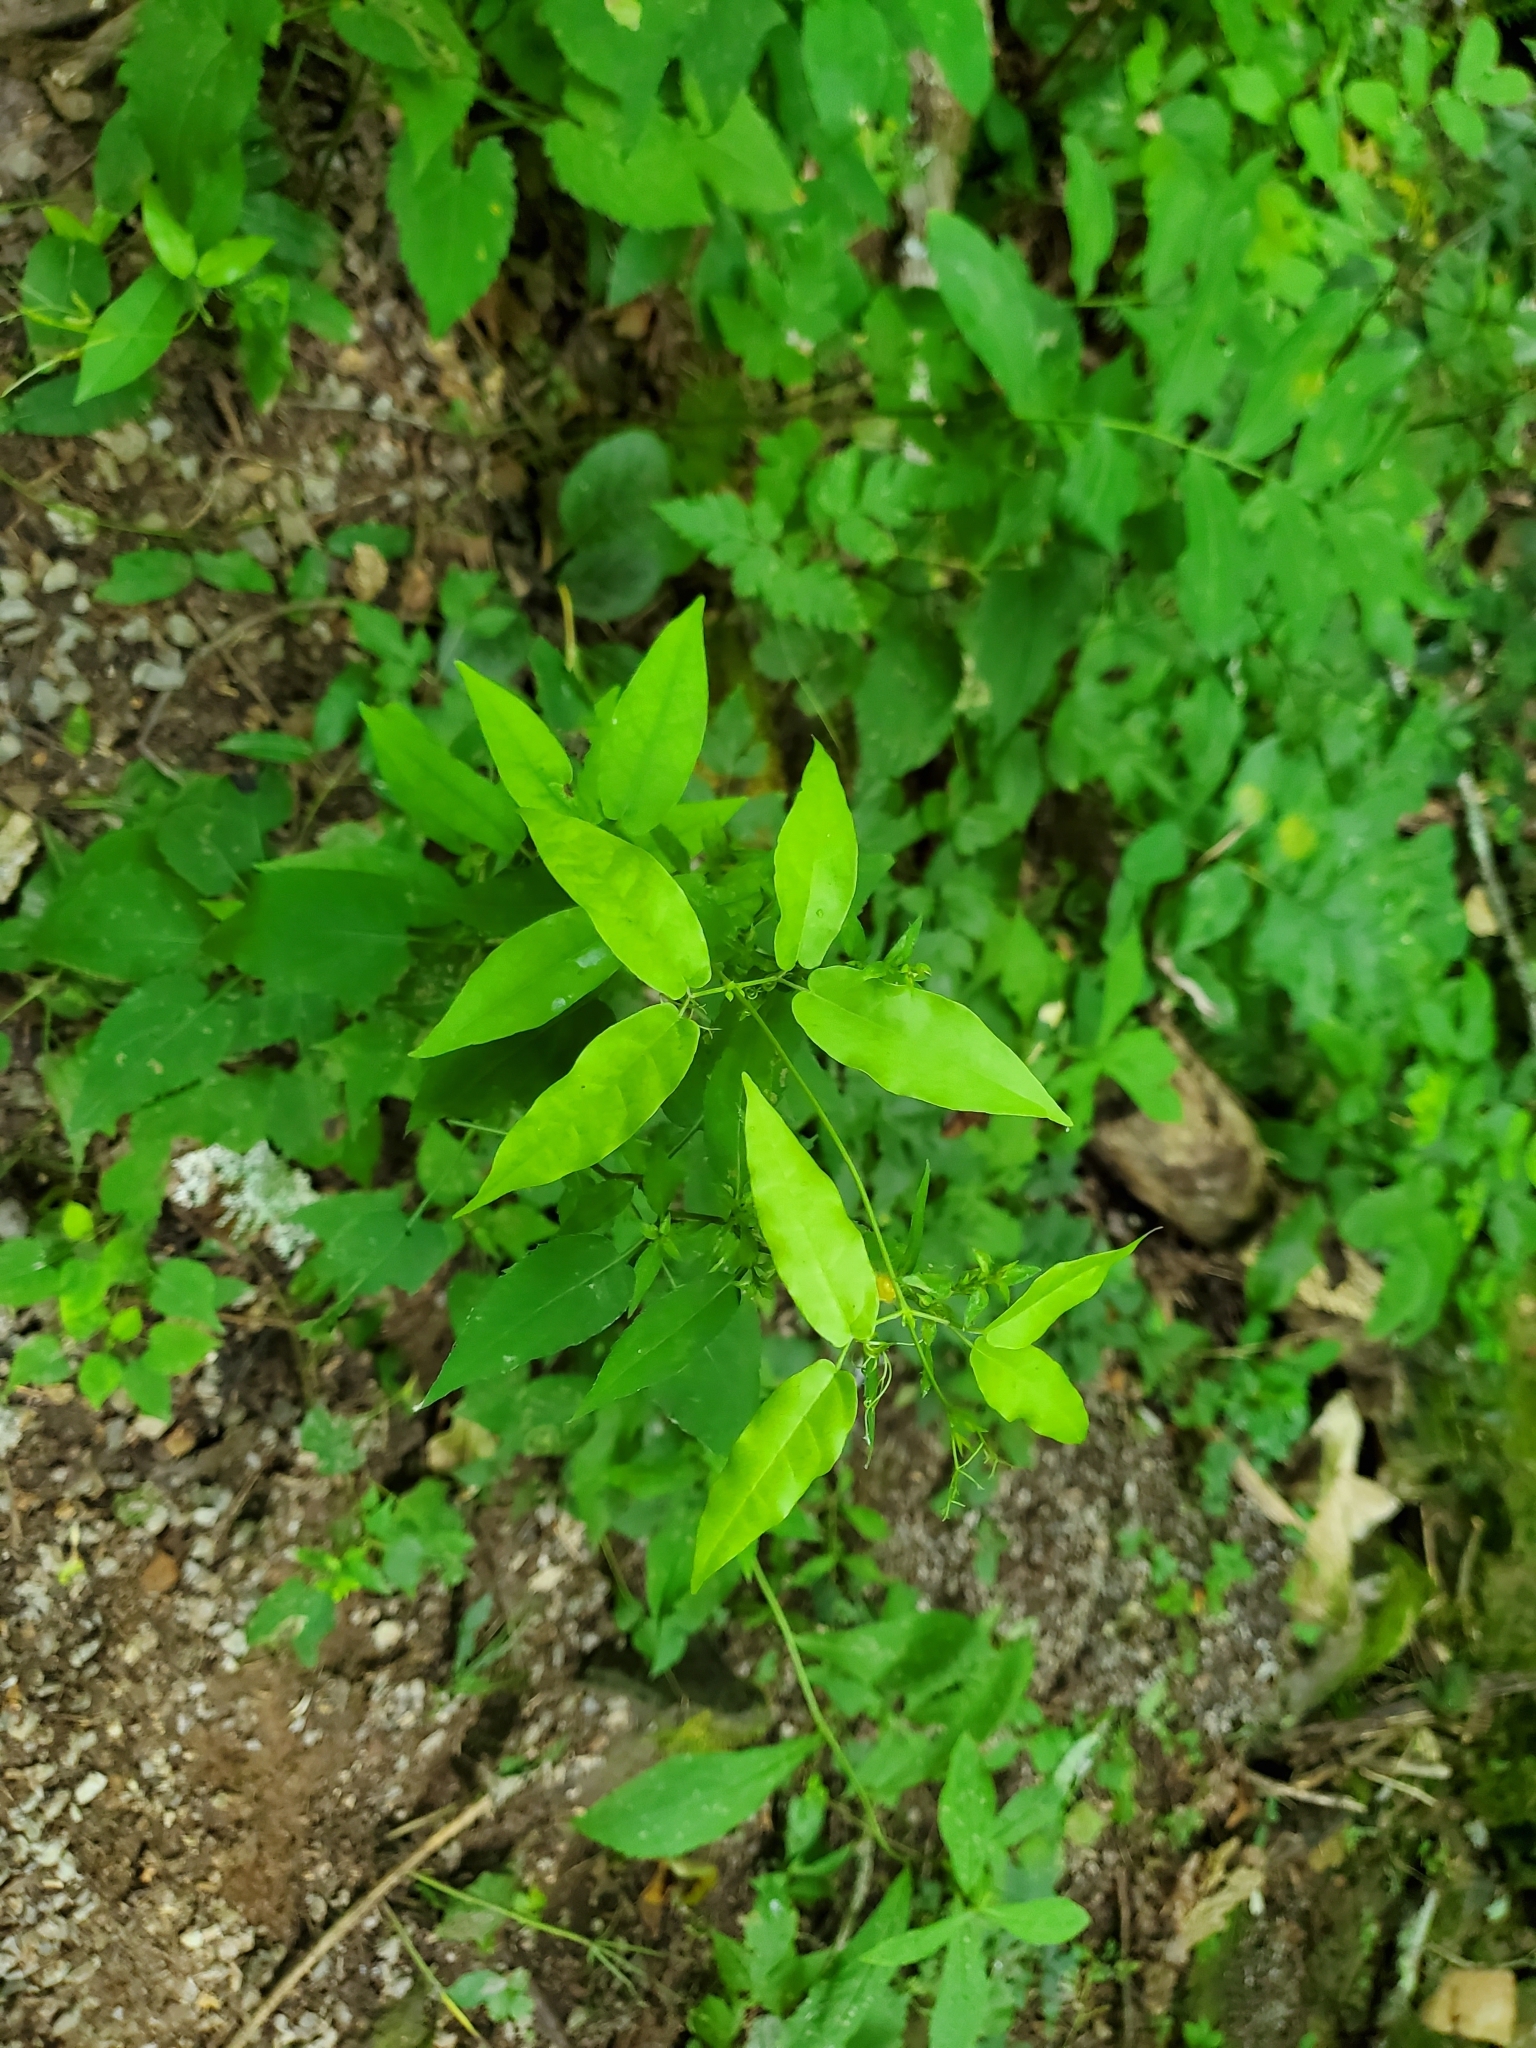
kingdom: Plantae
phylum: Tracheophyta
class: Magnoliopsida
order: Lamiales
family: Bignoniaceae
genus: Bignonia
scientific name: Bignonia capreolata
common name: Crossvine
